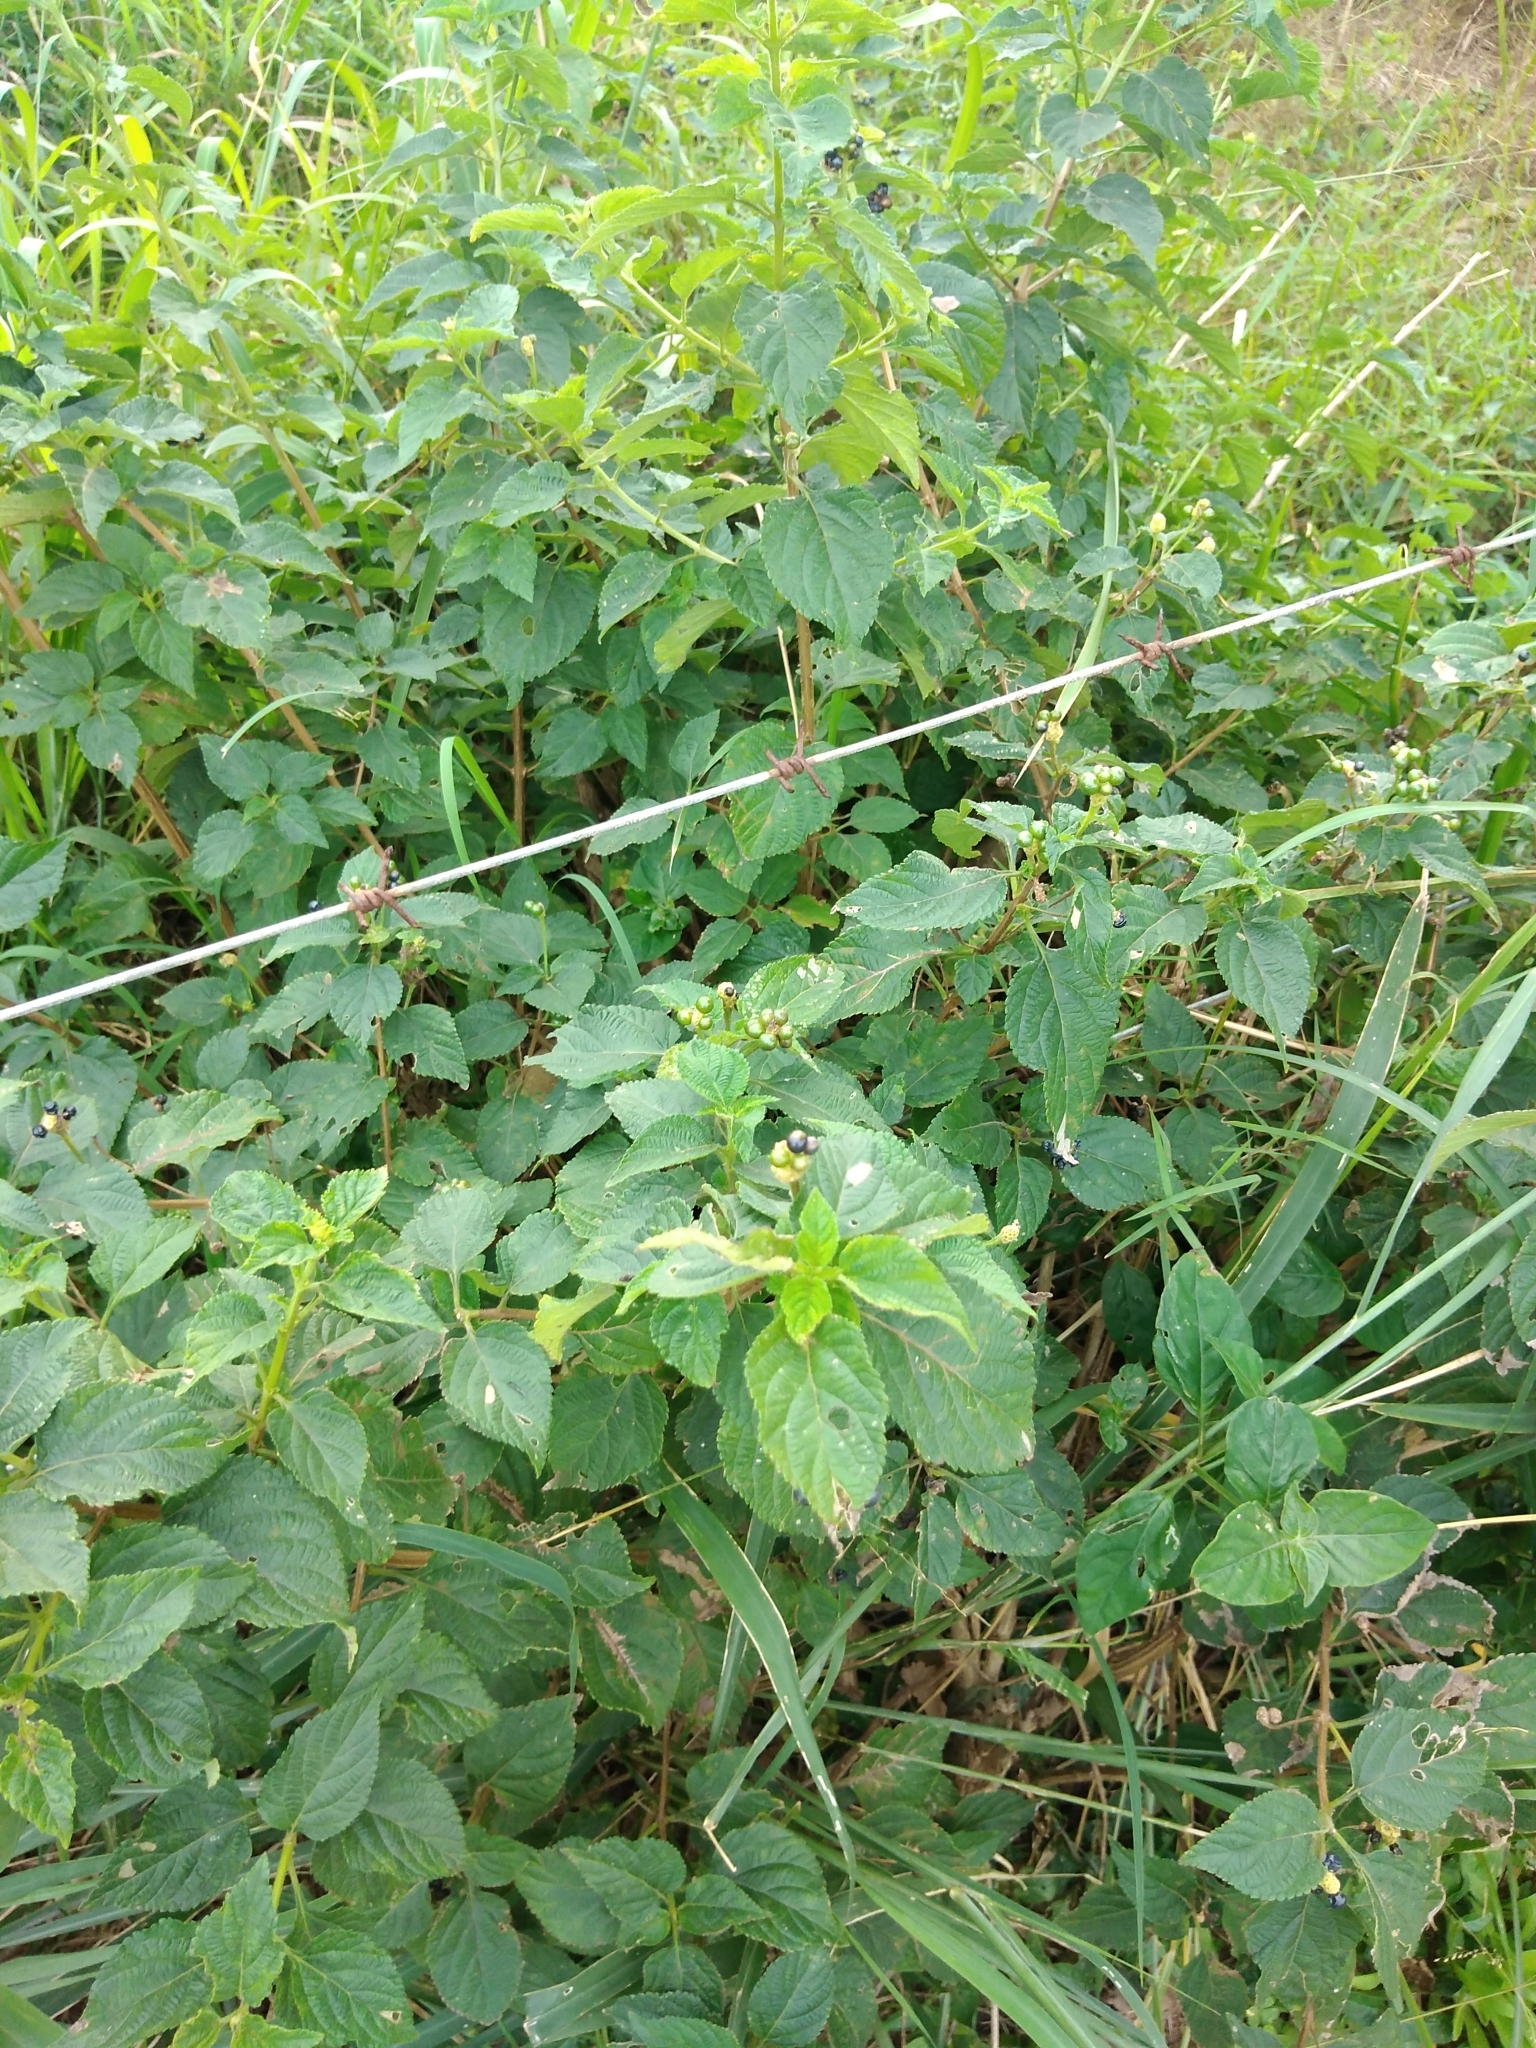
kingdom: Plantae
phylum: Tracheophyta
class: Magnoliopsida
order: Lamiales
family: Verbenaceae
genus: Lantana
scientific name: Lantana camara
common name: Lantana
